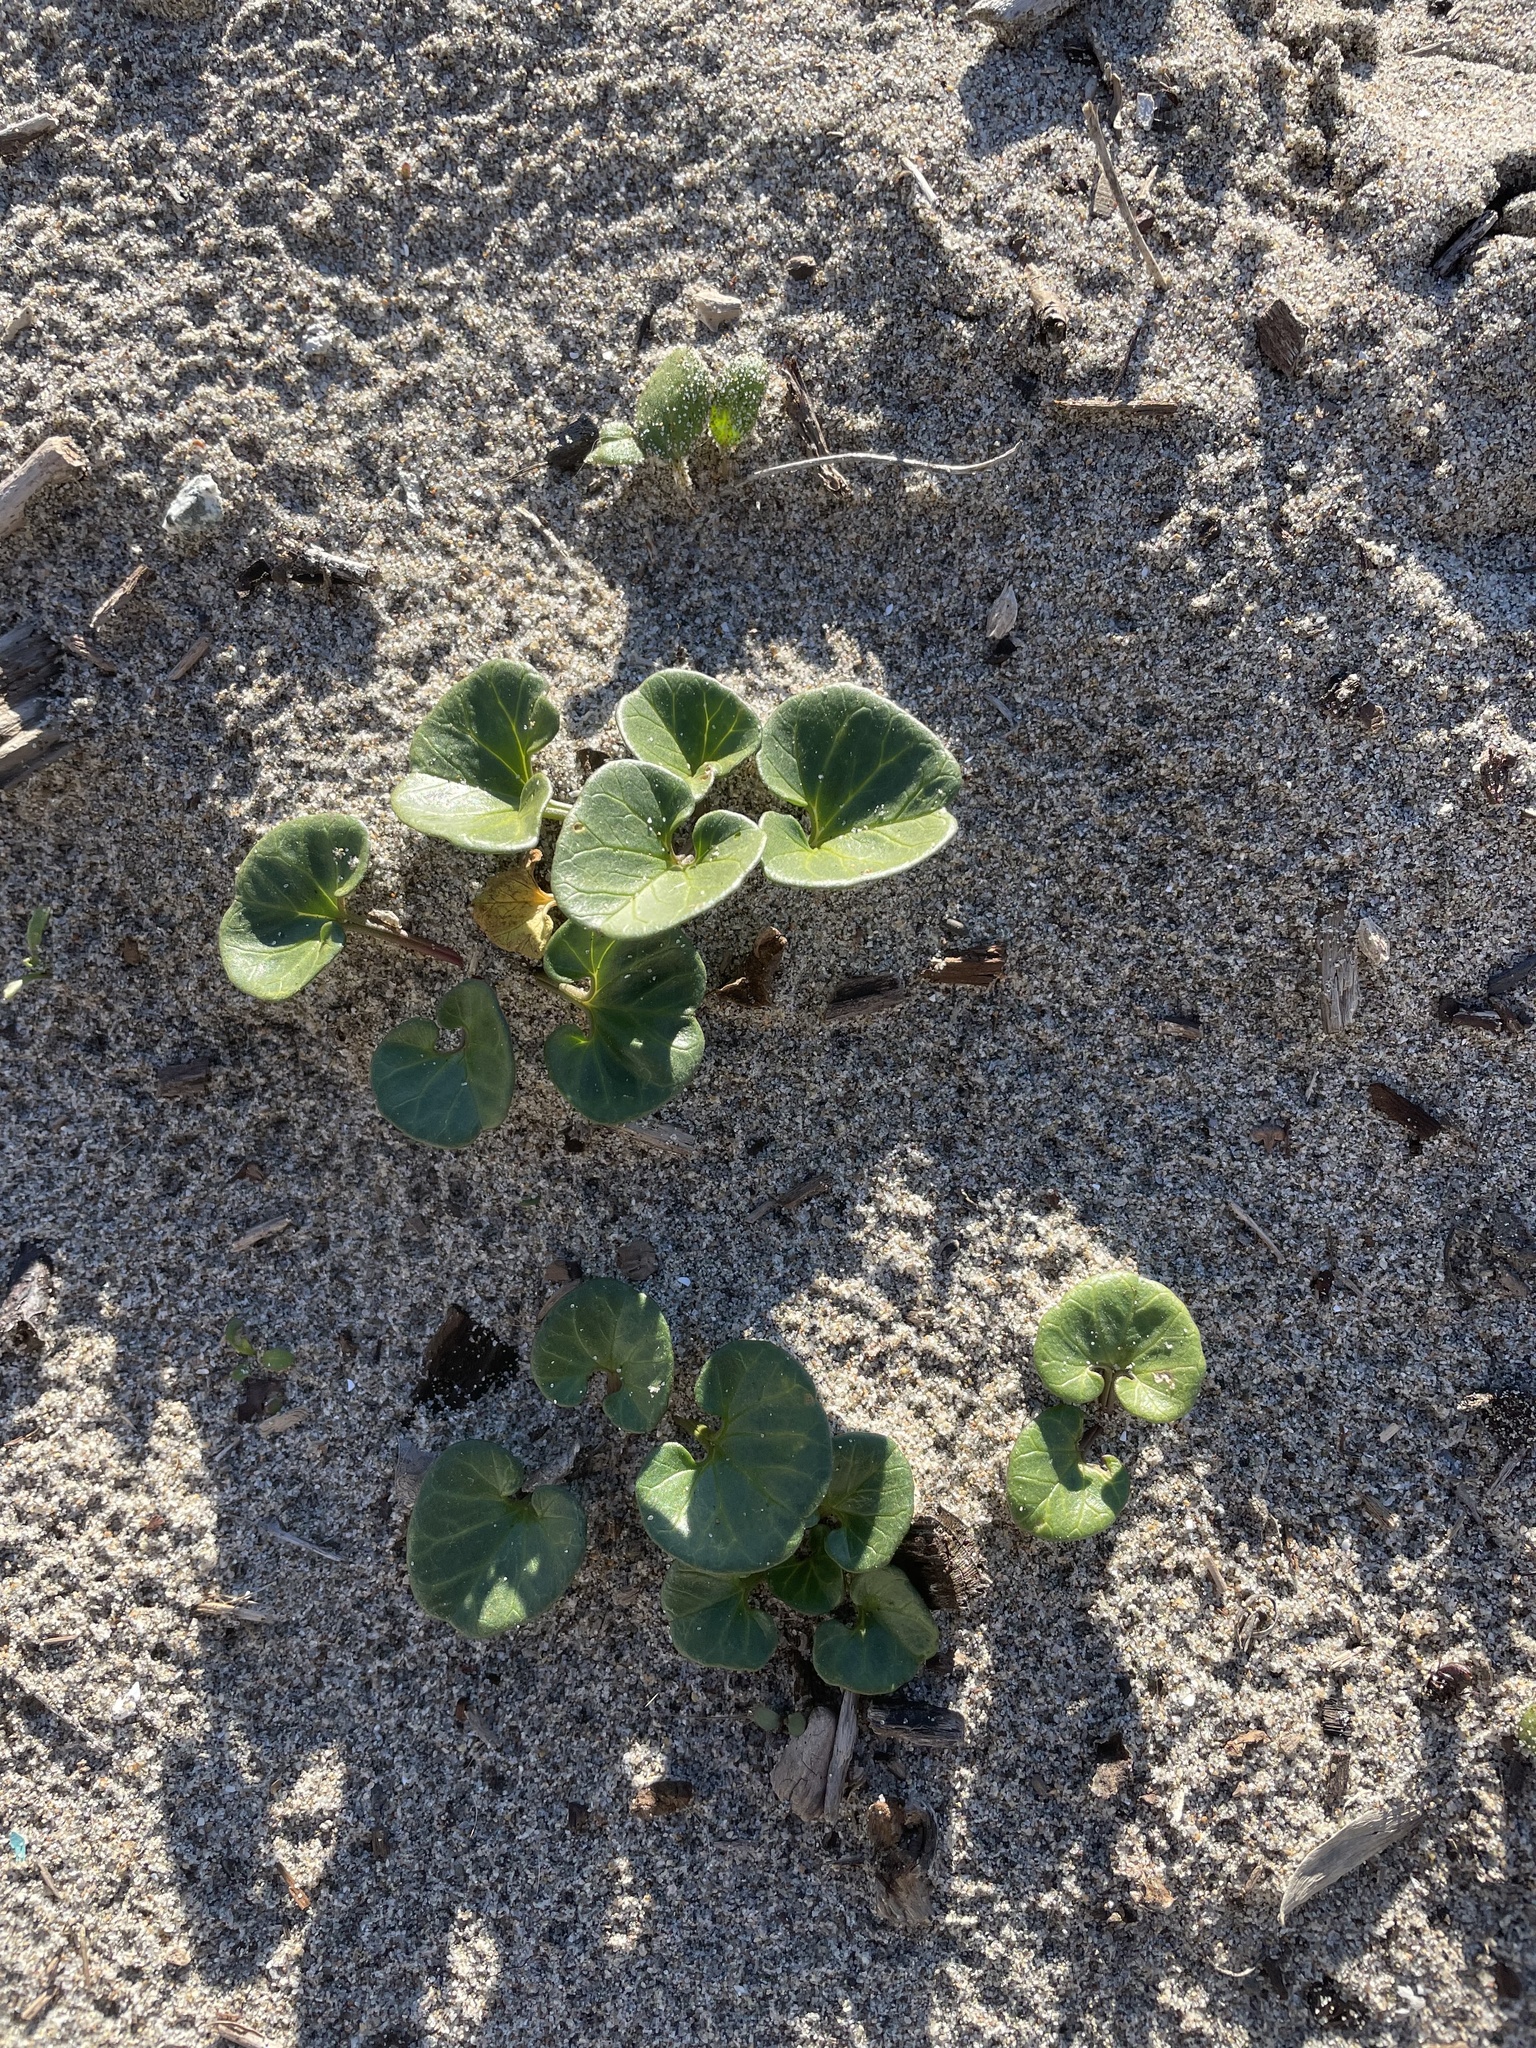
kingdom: Plantae
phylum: Tracheophyta
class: Magnoliopsida
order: Solanales
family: Convolvulaceae
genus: Calystegia
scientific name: Calystegia soldanella
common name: Sea bindweed
